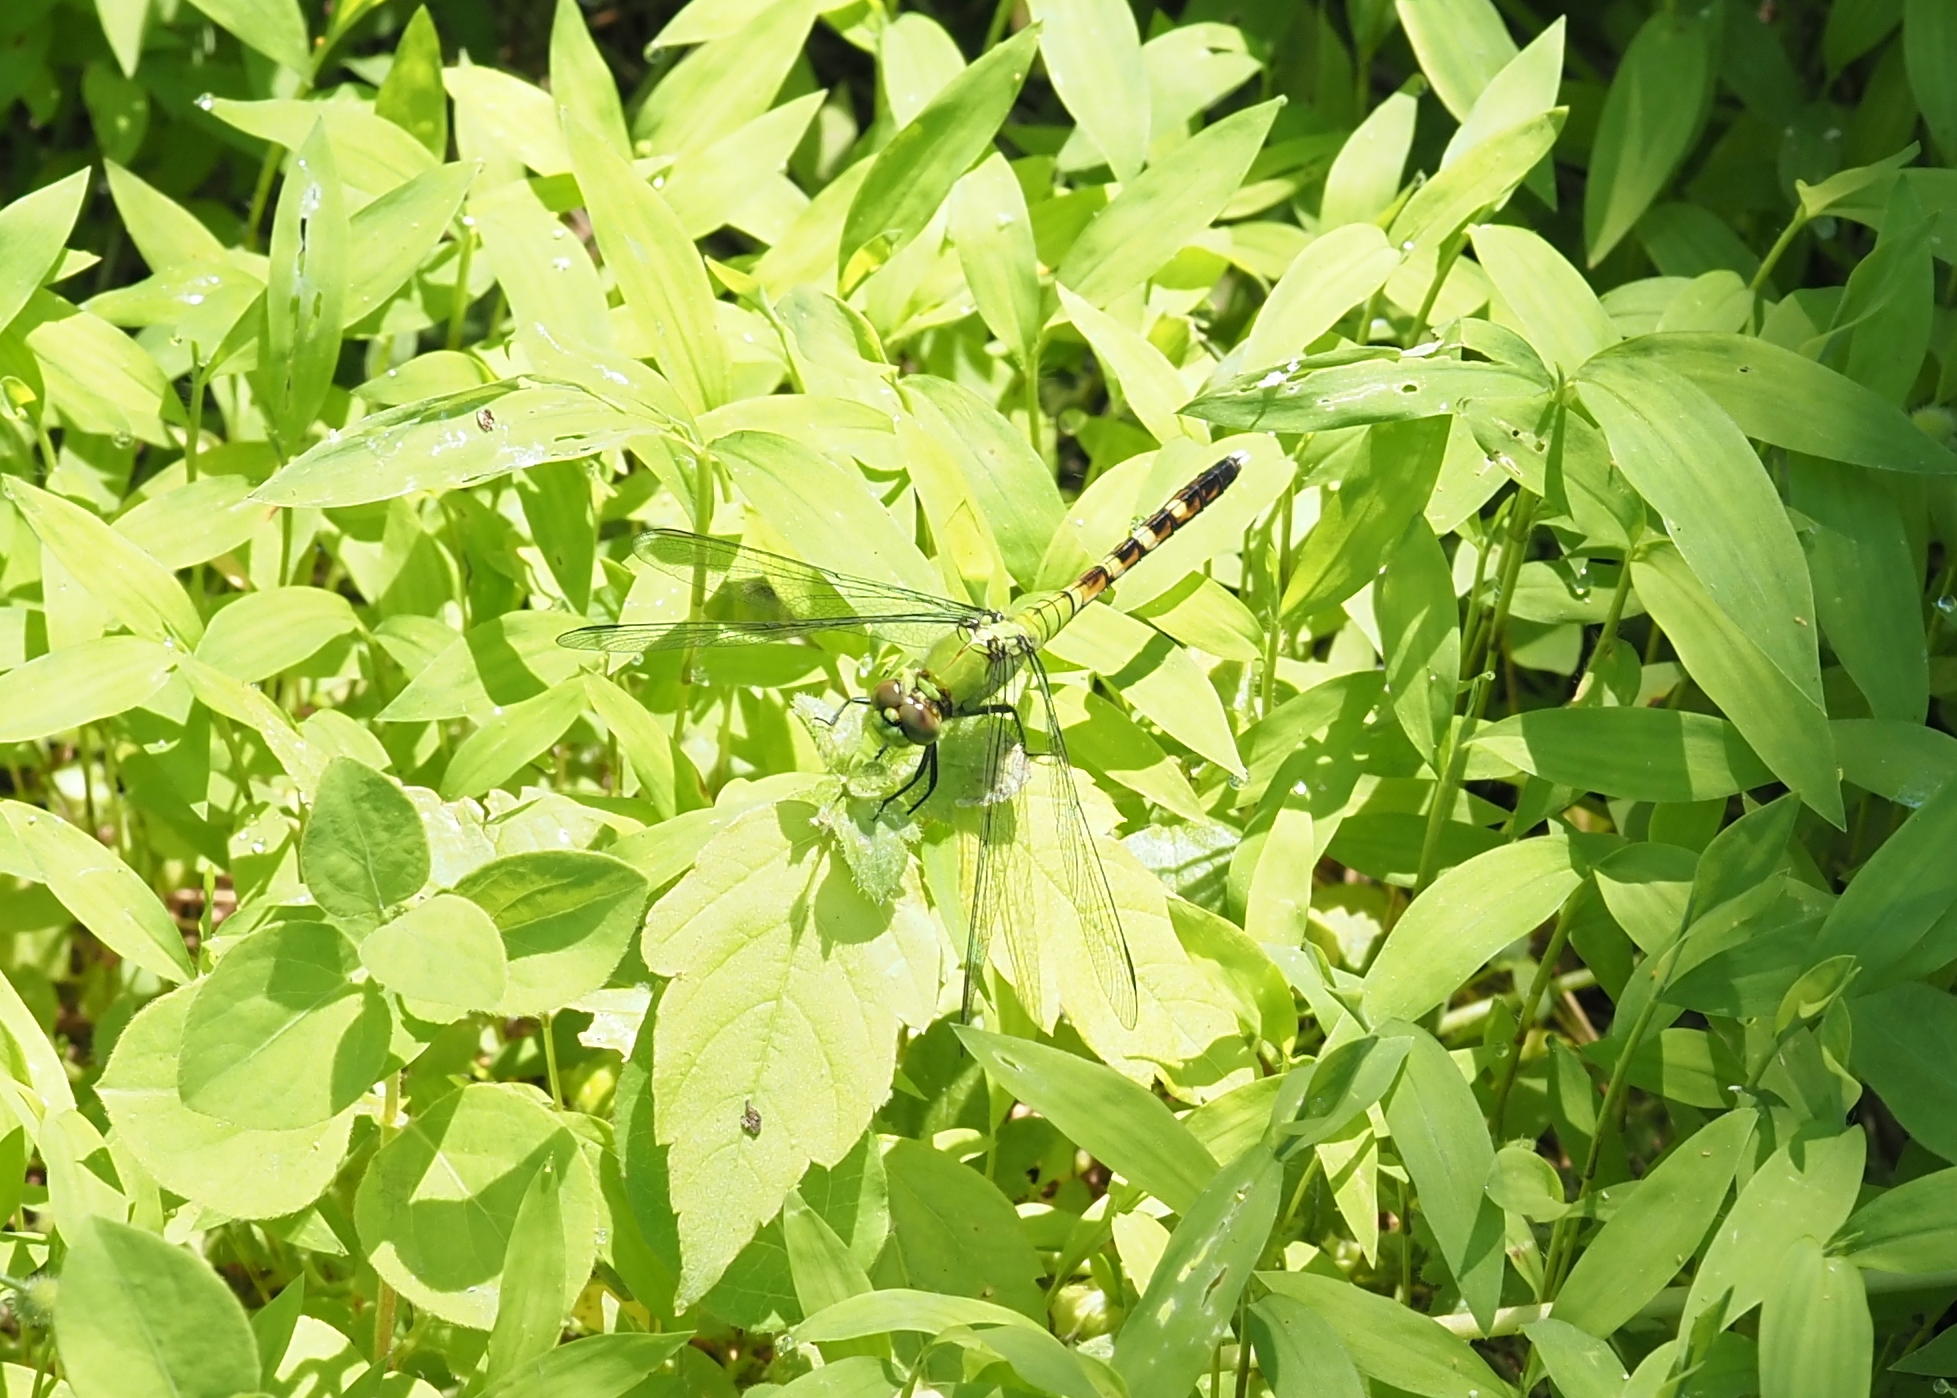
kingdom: Animalia
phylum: Arthropoda
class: Insecta
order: Odonata
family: Libellulidae
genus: Erythemis
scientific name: Erythemis simplicicollis
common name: Eastern pondhawk
